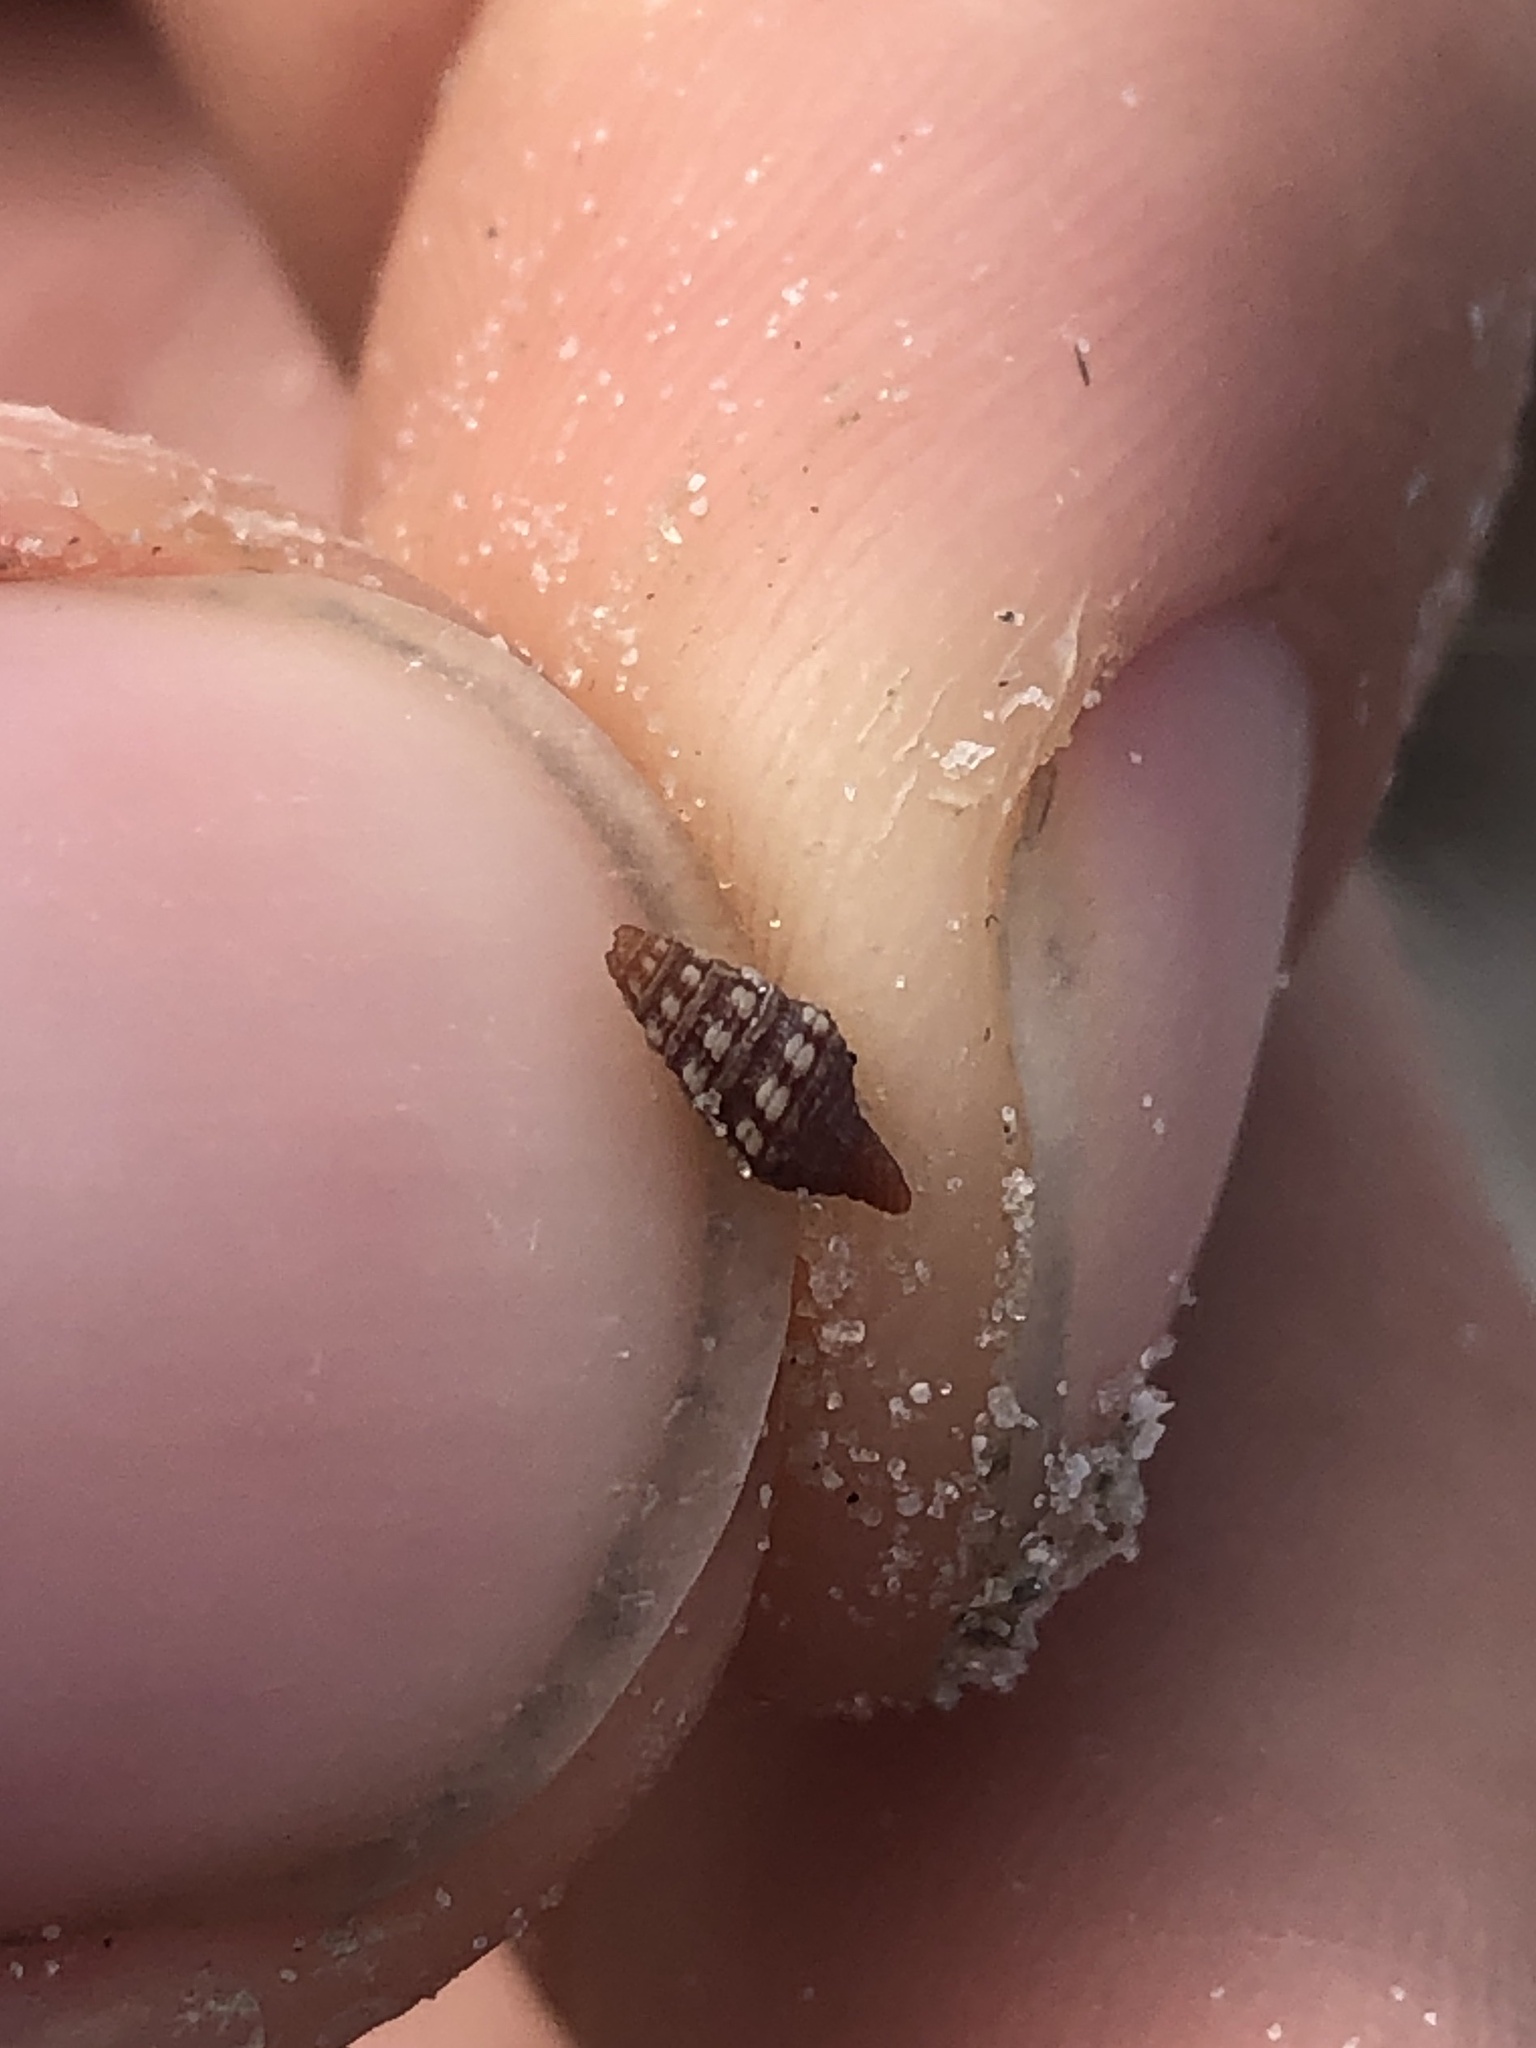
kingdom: Animalia
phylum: Mollusca
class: Gastropoda
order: Neogastropoda
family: Pseudomelatomidae
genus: Pilsbryspira
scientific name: Pilsbryspira leucocyma
